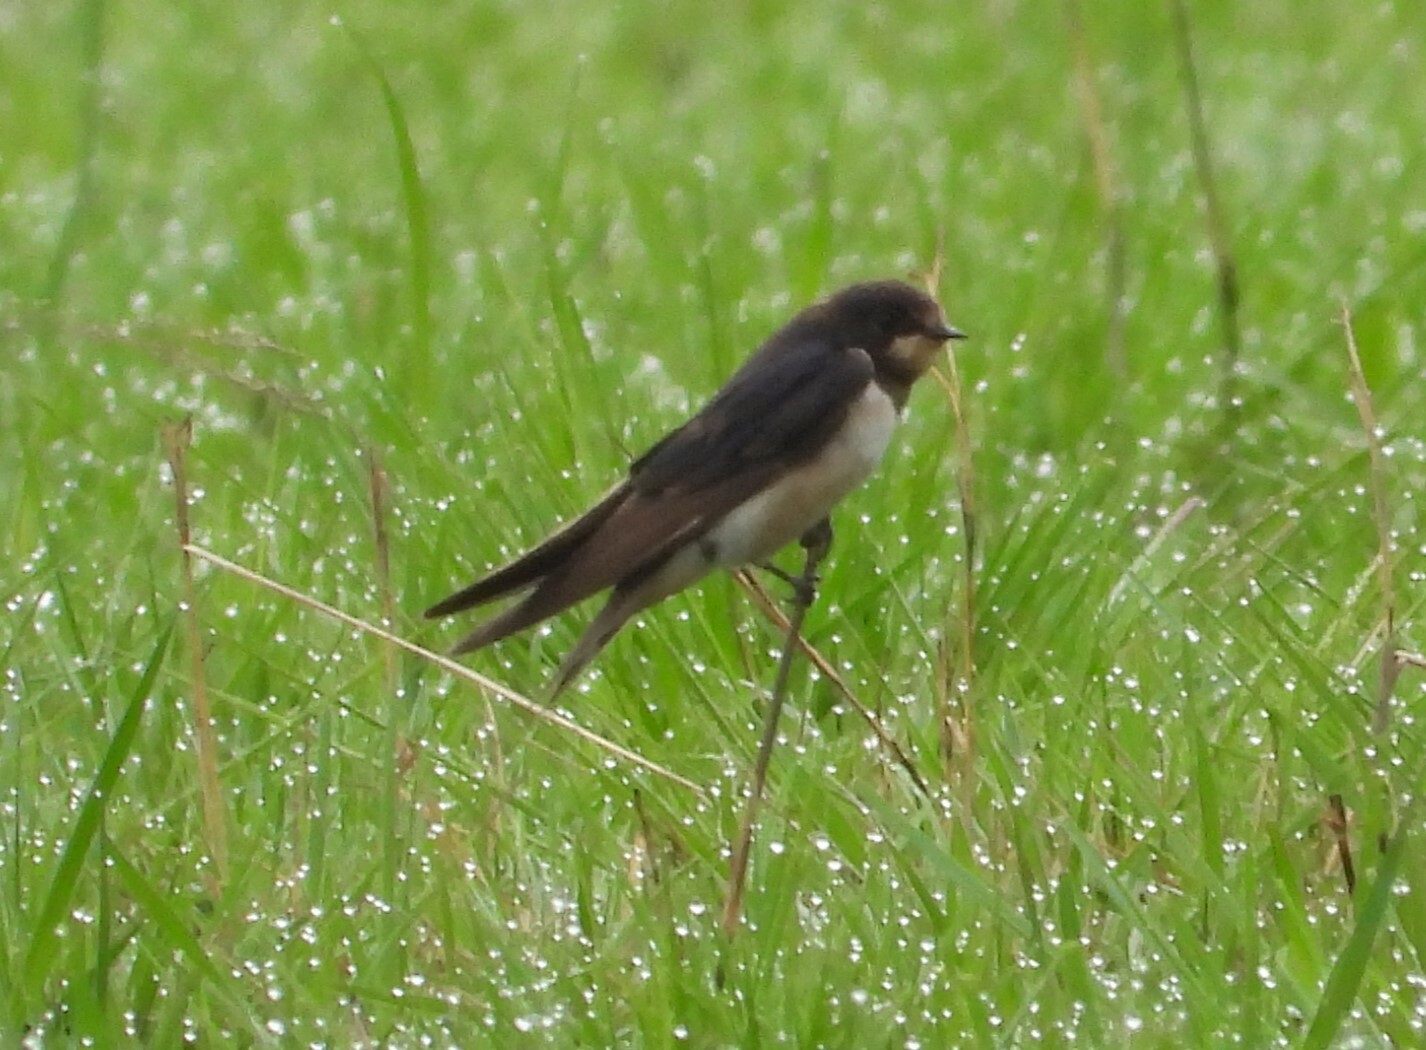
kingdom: Animalia
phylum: Chordata
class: Aves
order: Passeriformes
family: Hirundinidae
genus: Hirundo
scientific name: Hirundo rustica
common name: Barn swallow
